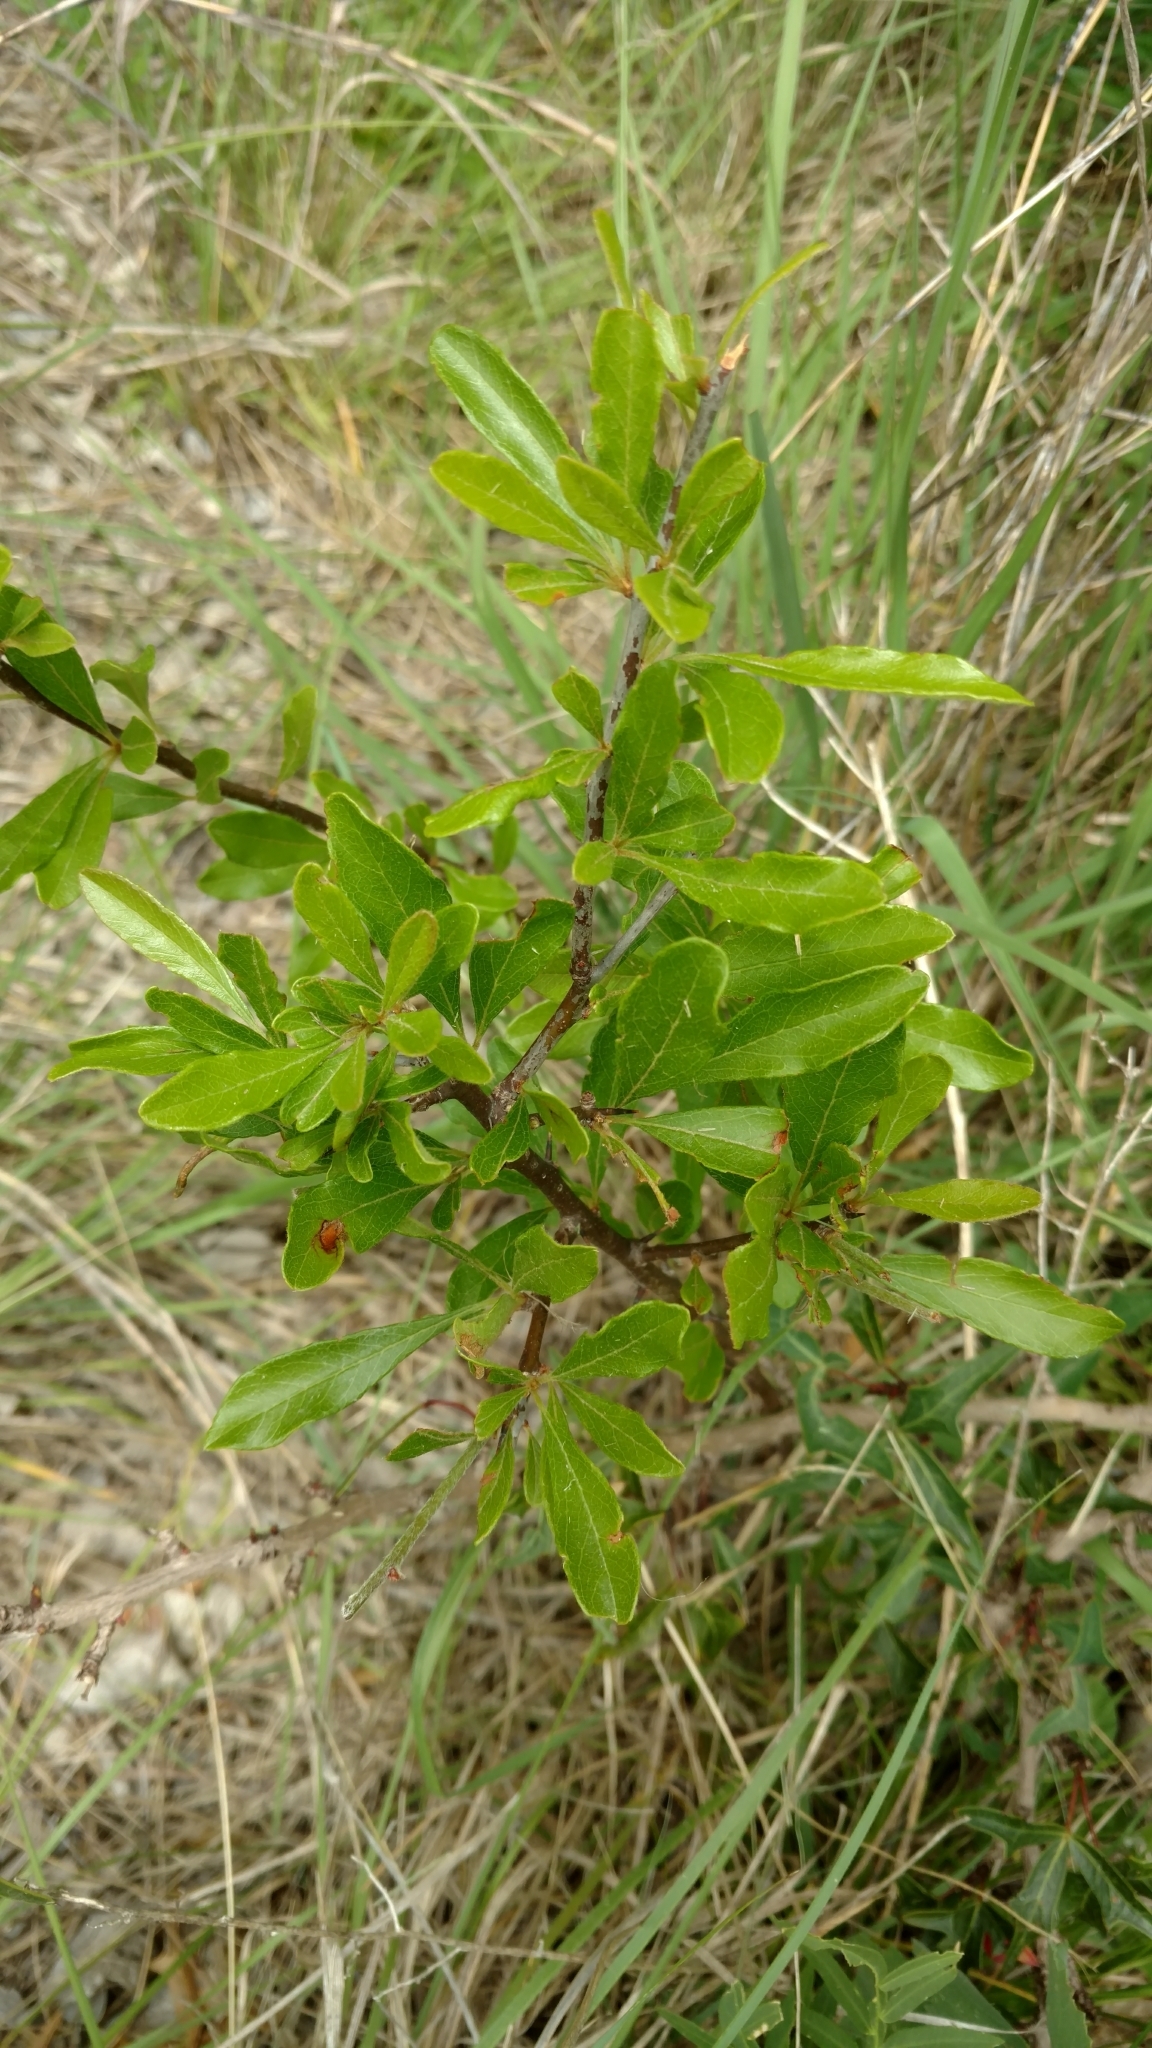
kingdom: Plantae
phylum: Tracheophyta
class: Magnoliopsida
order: Ericales
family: Sapotaceae
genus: Sideroxylon
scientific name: Sideroxylon lanuginosum
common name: Chittamwood
